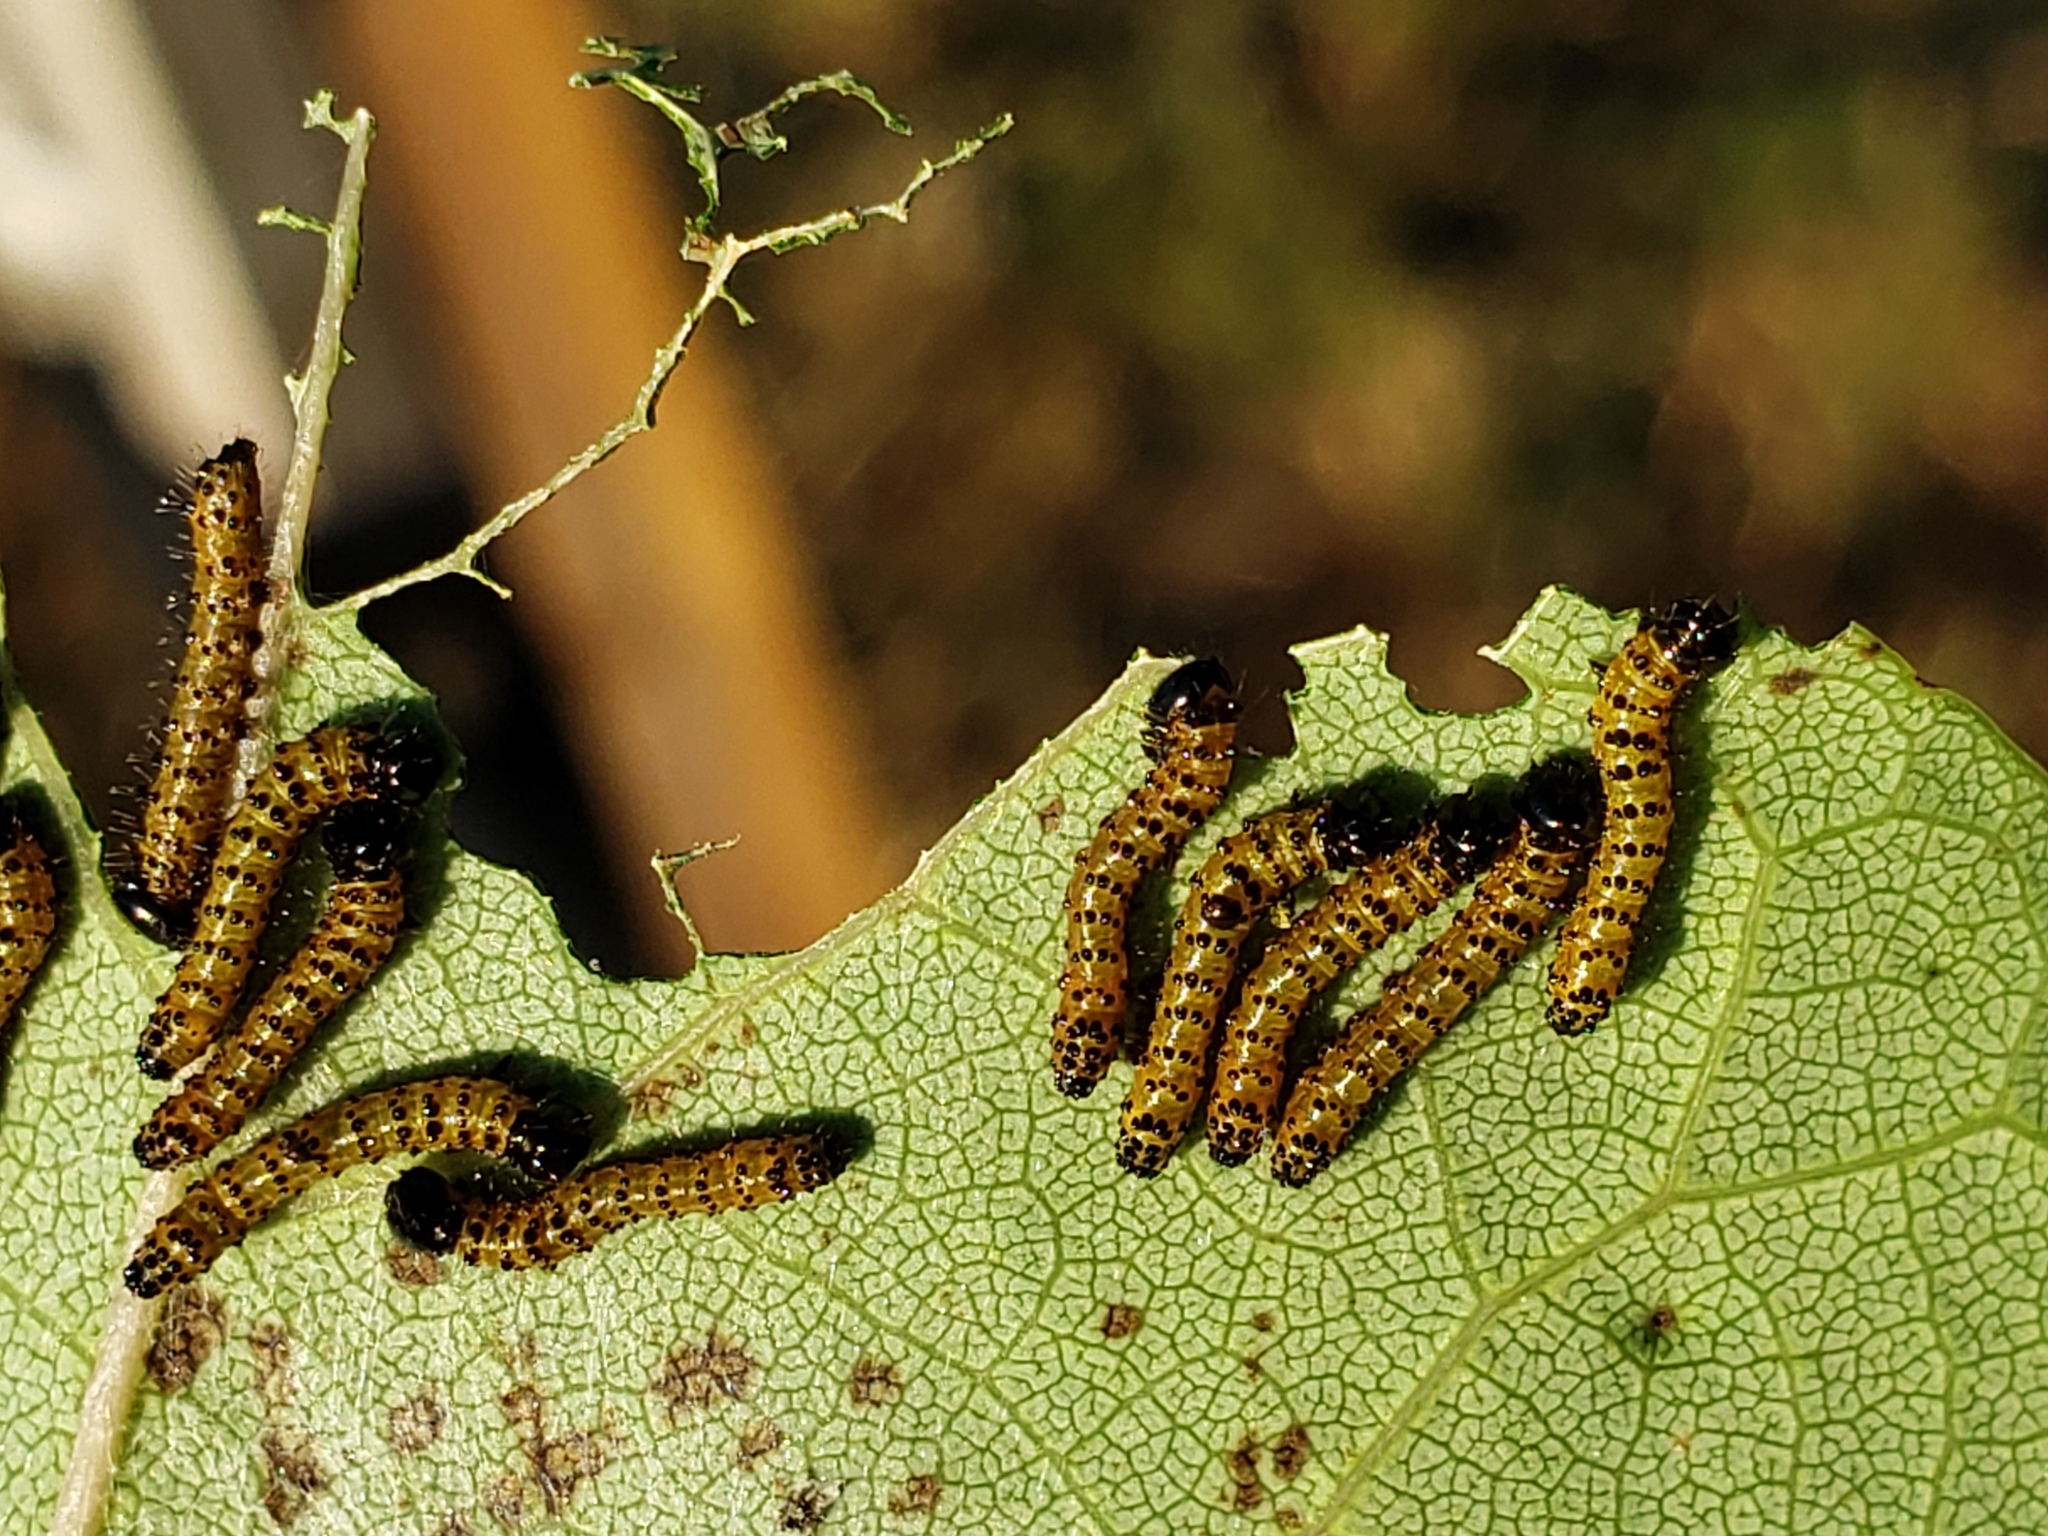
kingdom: Animalia
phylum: Arthropoda
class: Insecta
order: Lepidoptera
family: Notodontidae
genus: Schizura
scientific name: Schizura
